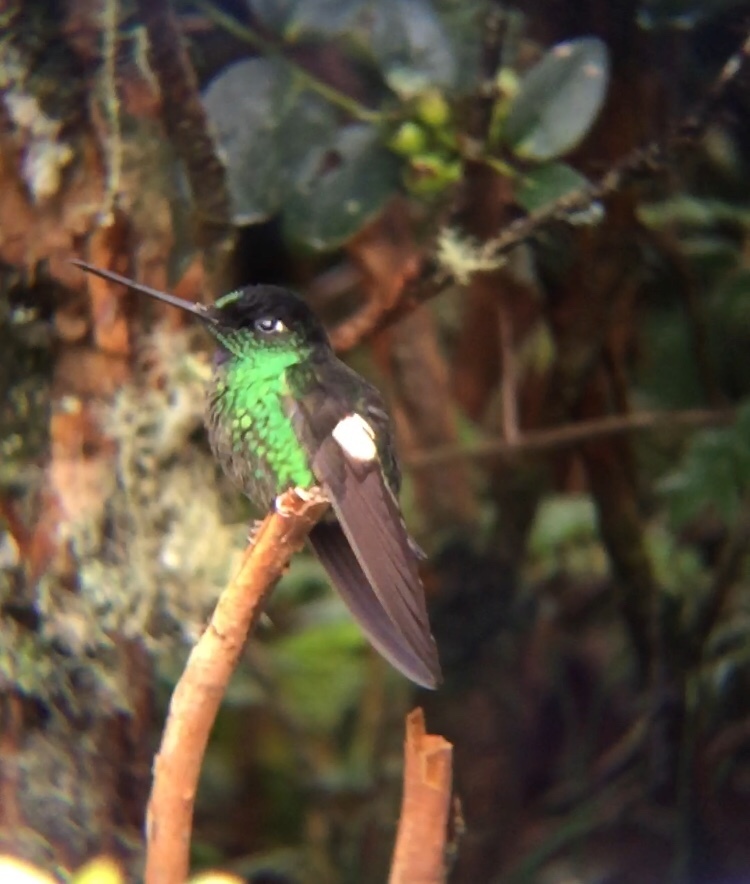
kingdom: Animalia
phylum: Chordata
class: Aves
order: Apodiformes
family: Trochilidae
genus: Coeligena
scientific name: Coeligena lutetiae
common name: Buff-winged starfrontlet
